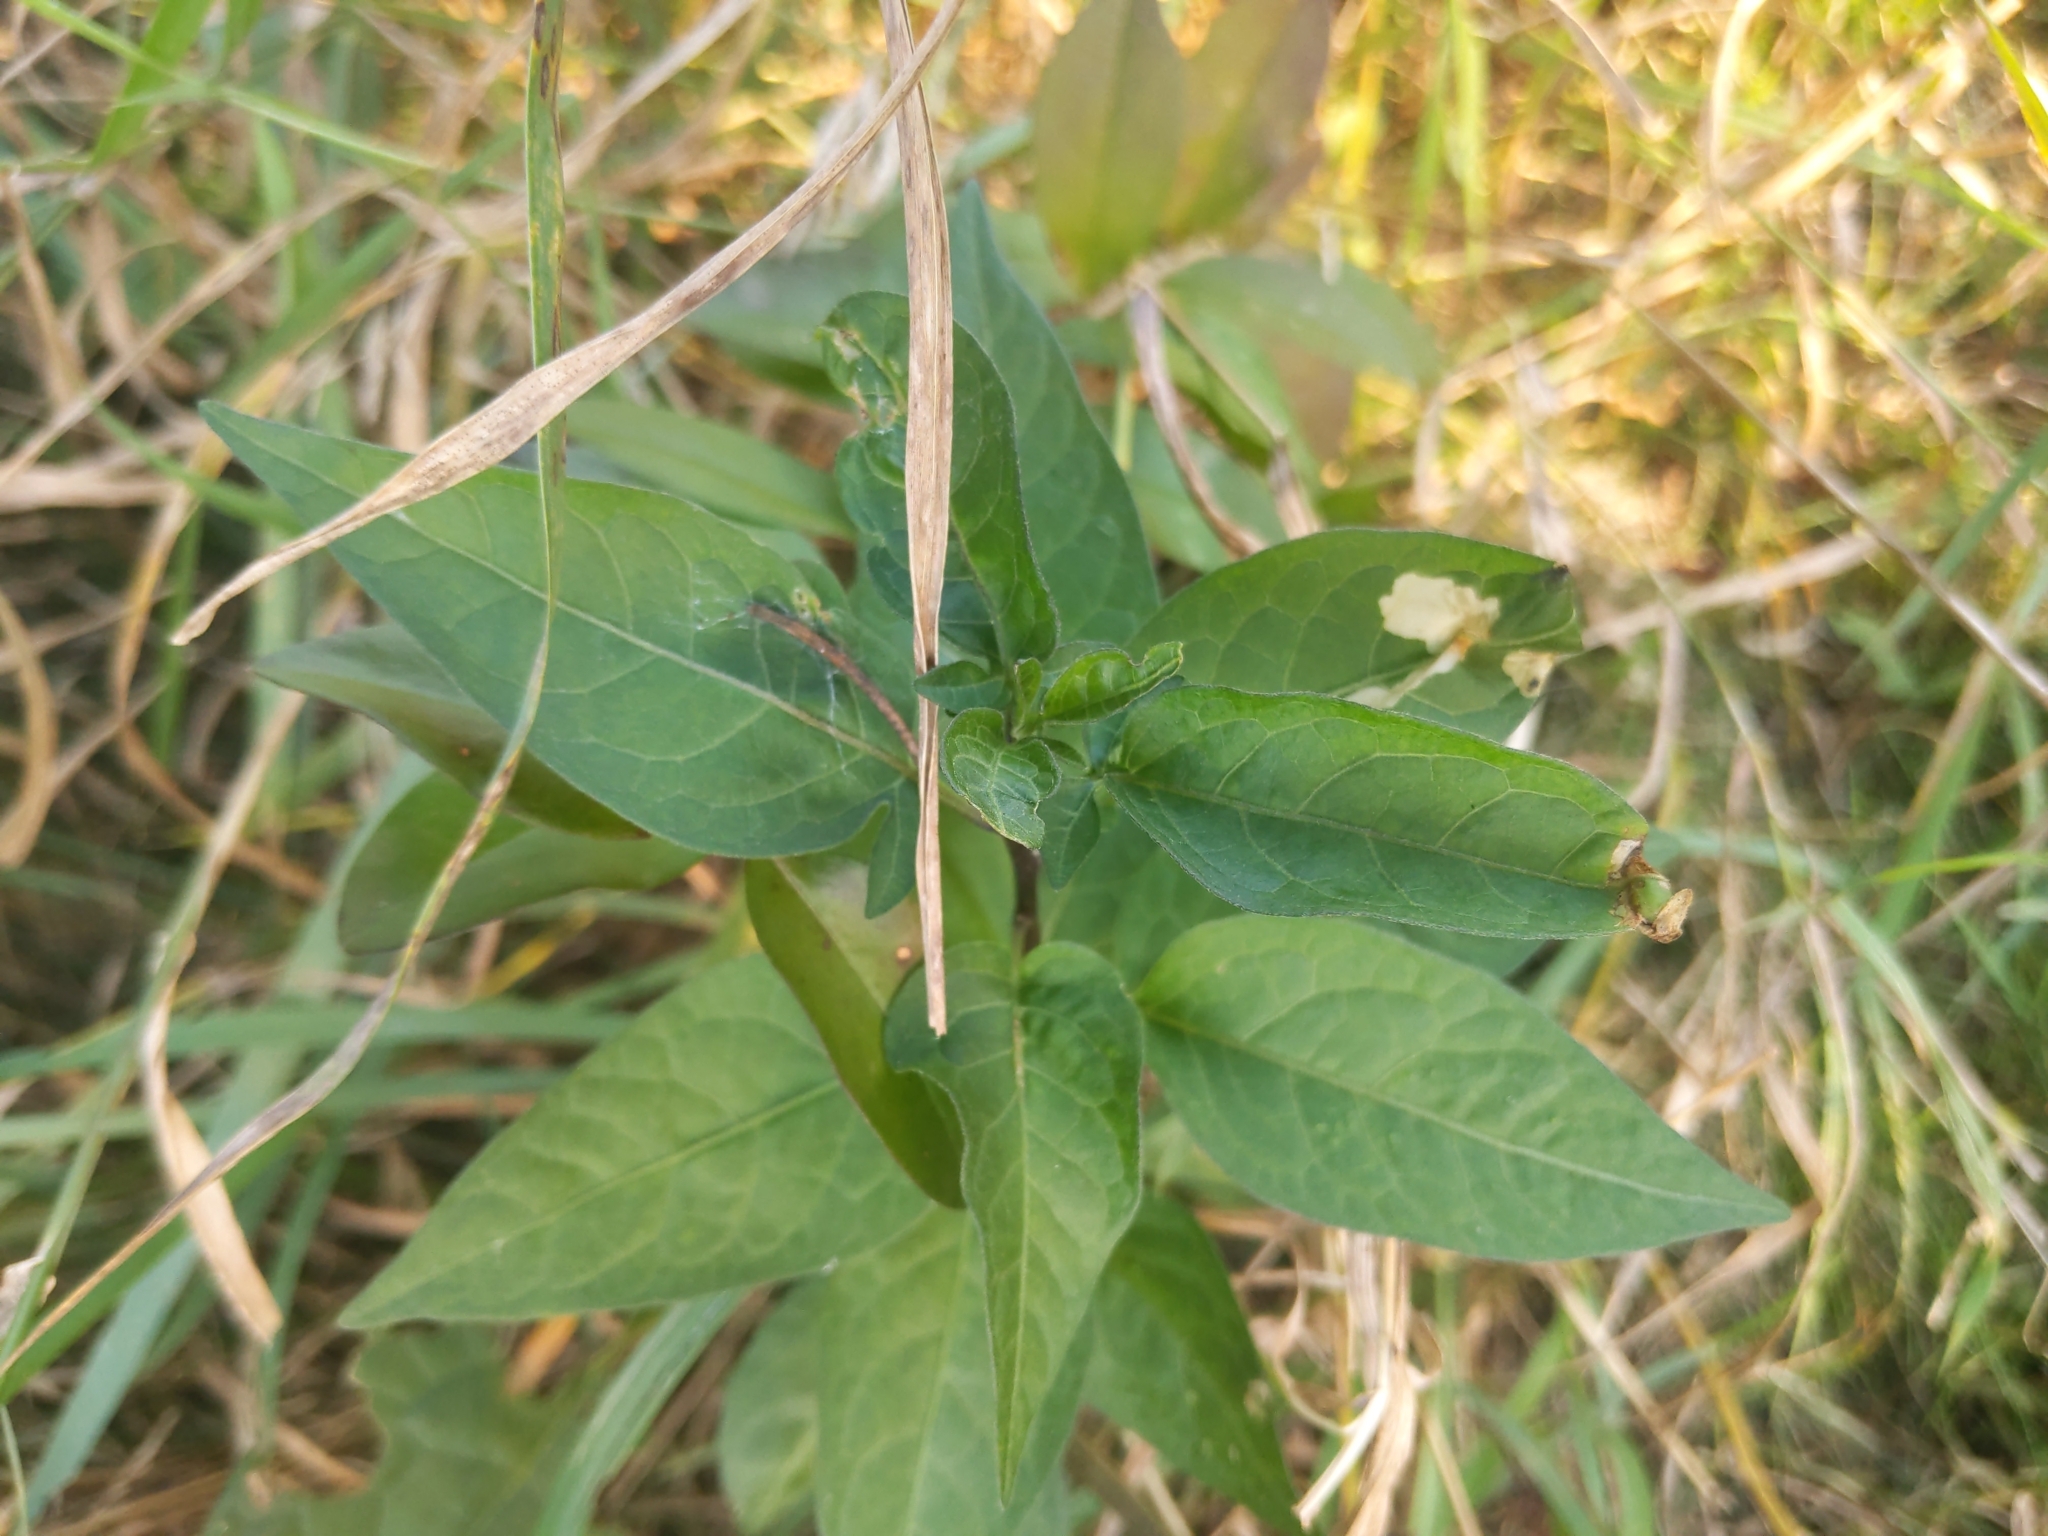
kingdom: Plantae
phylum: Tracheophyta
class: Magnoliopsida
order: Solanales
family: Solanaceae
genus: Solanum
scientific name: Solanum dulcamara
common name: Climbing nightshade
